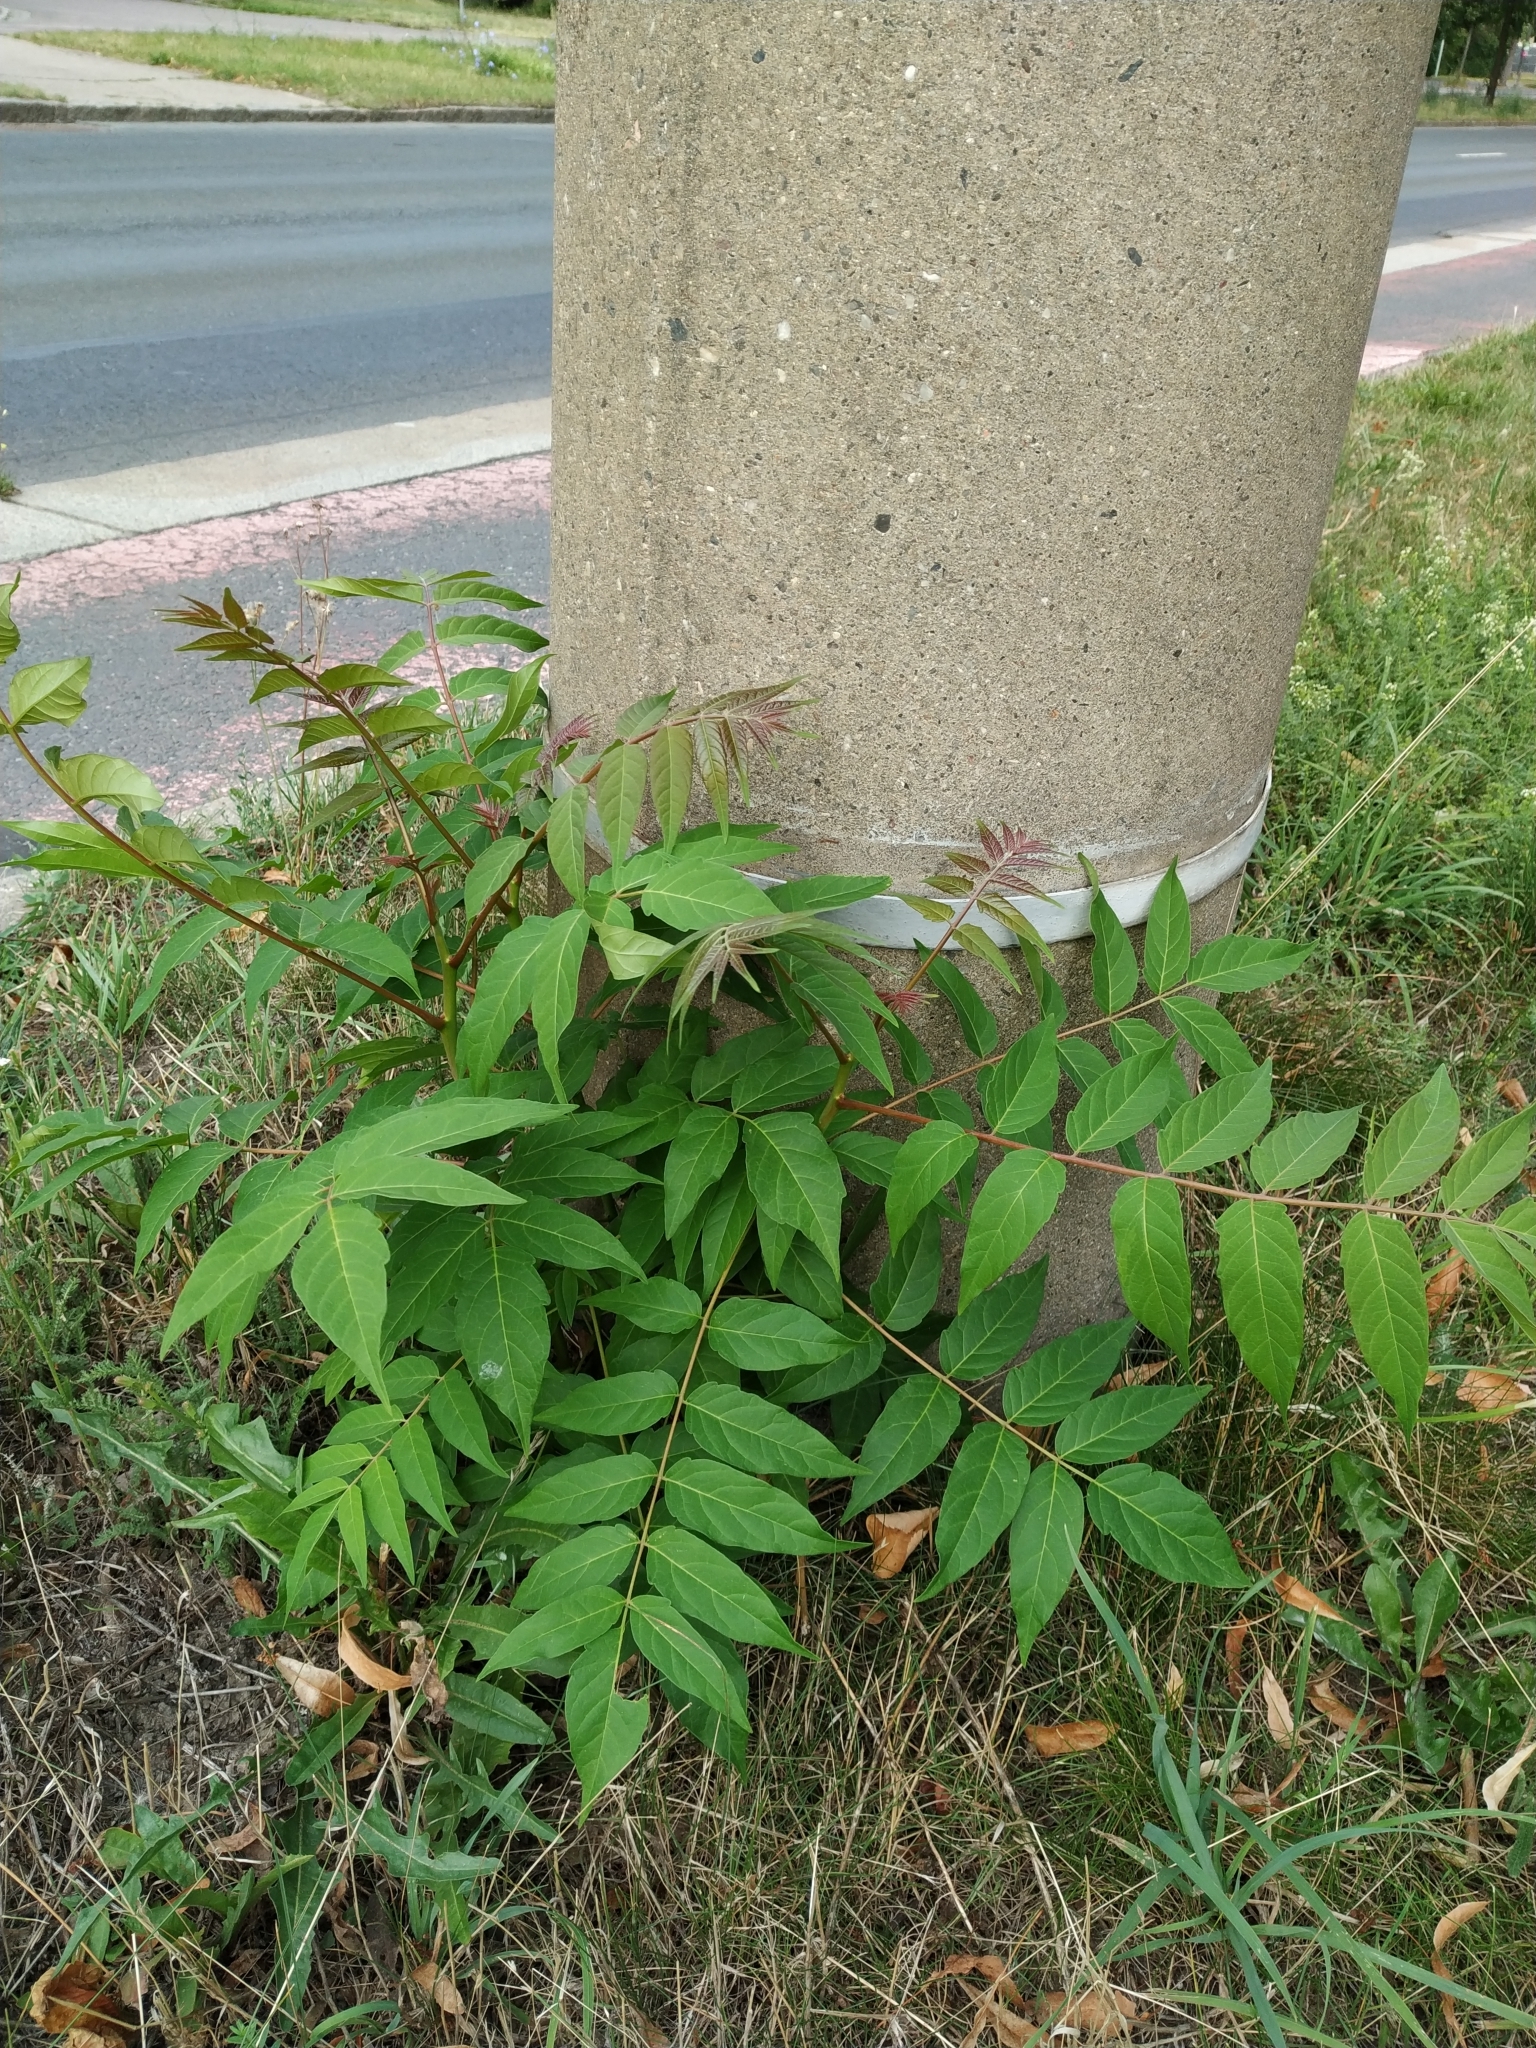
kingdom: Plantae
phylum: Tracheophyta
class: Magnoliopsida
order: Sapindales
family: Simaroubaceae
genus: Ailanthus
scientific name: Ailanthus altissima
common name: Tree-of-heaven
